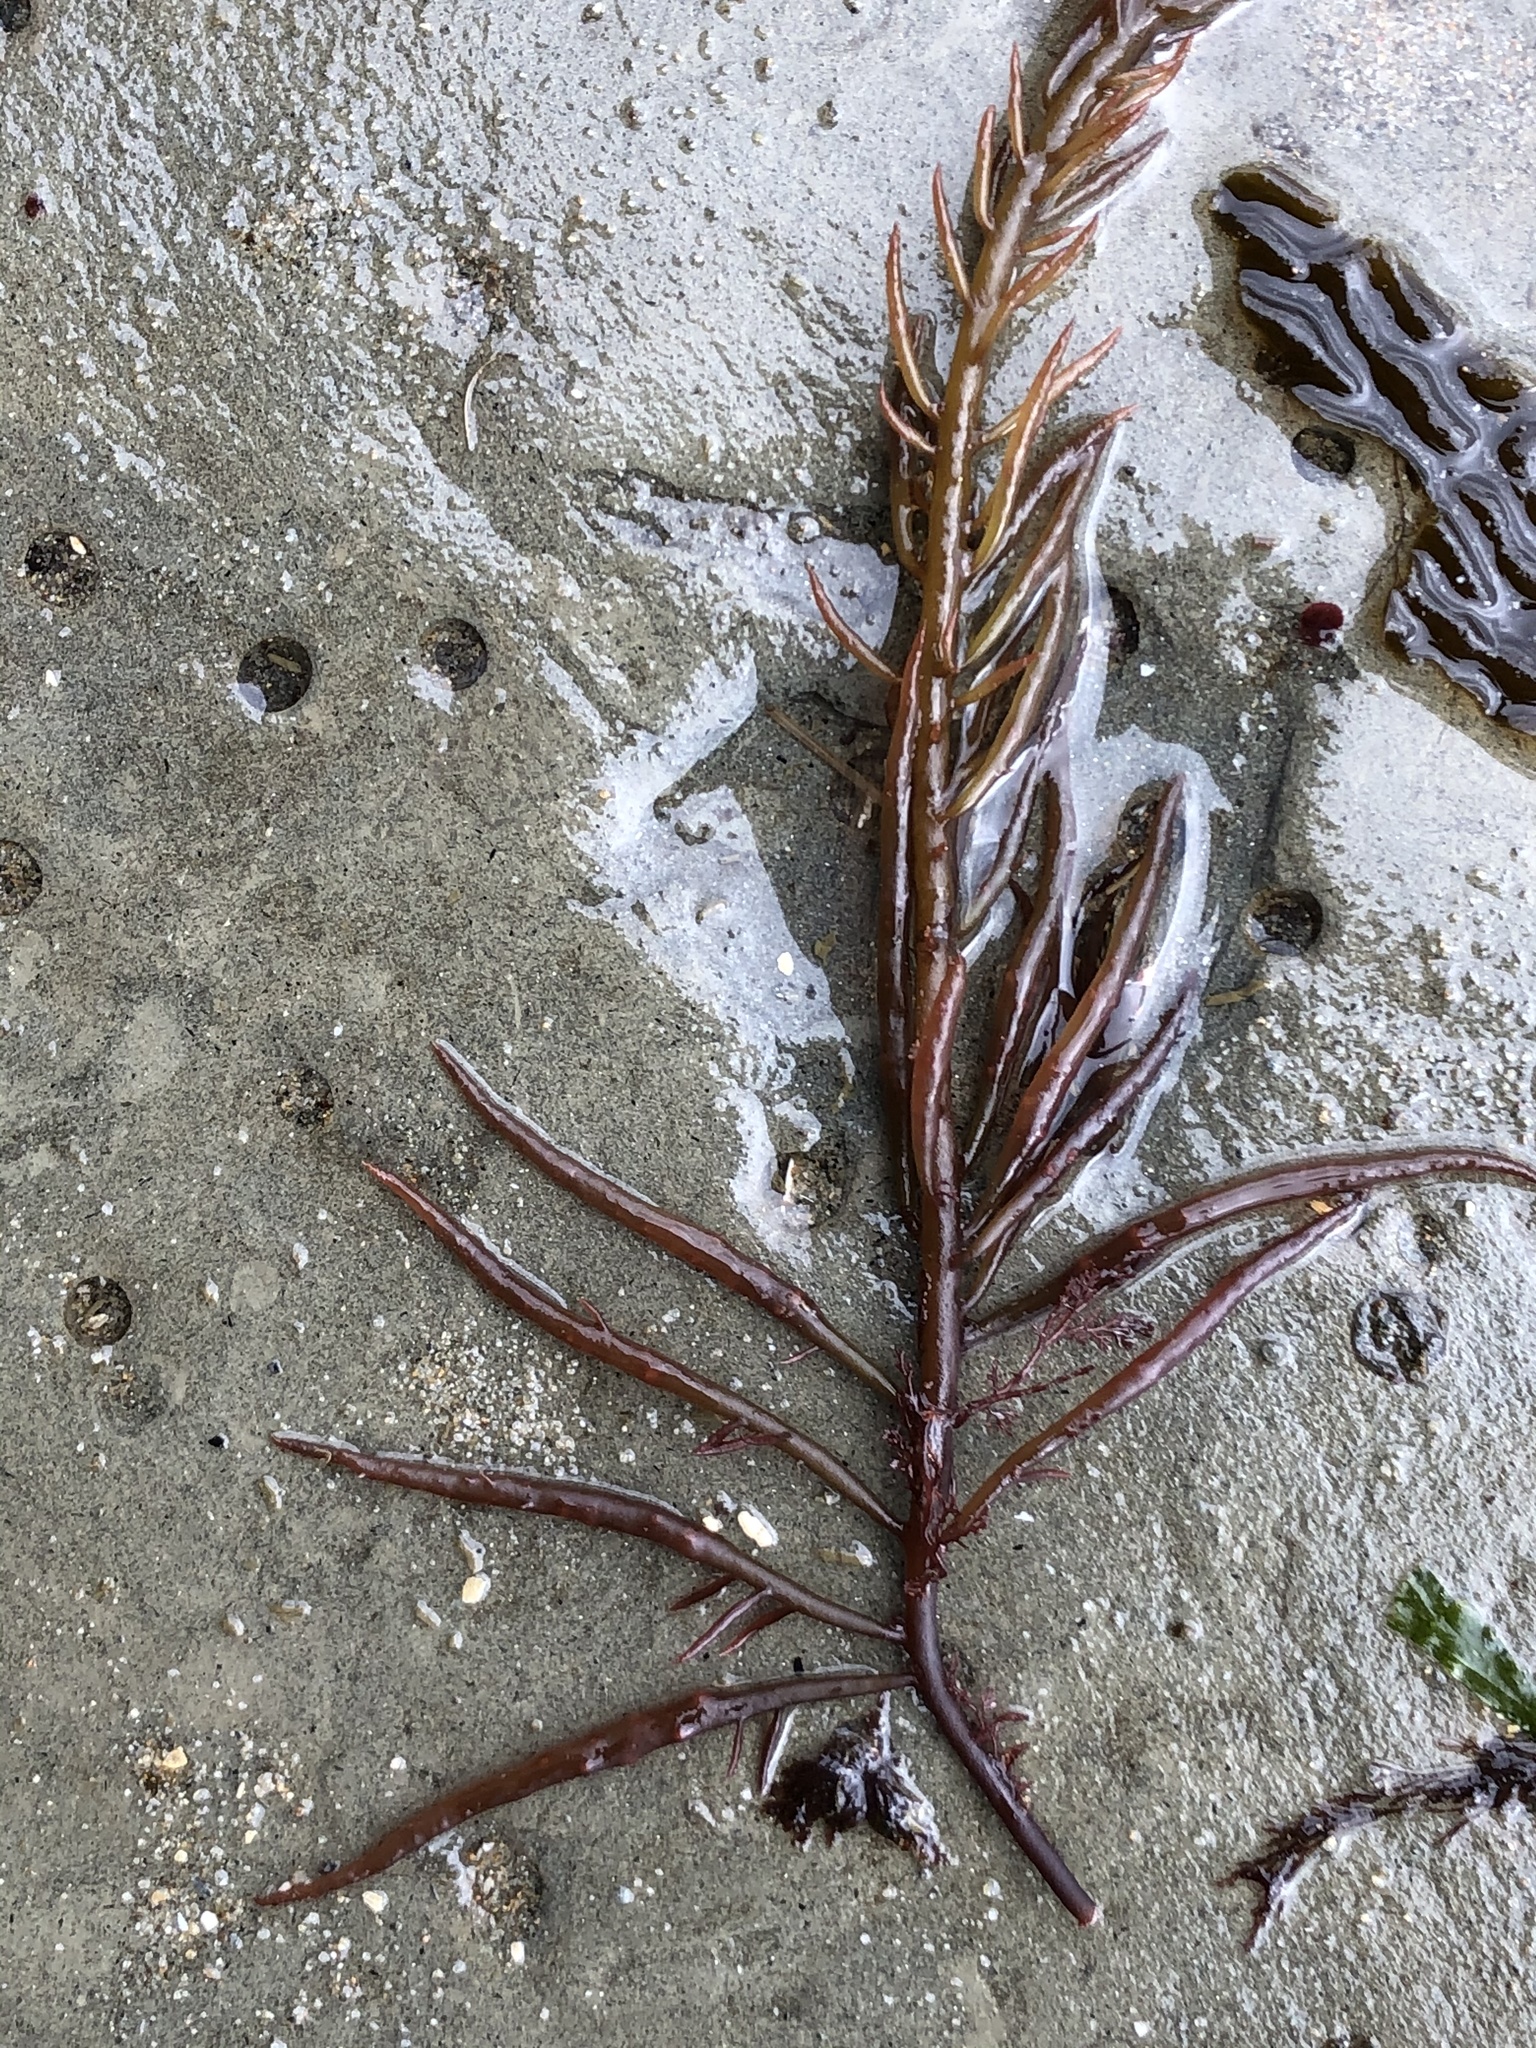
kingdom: Plantae
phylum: Rhodophyta
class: Florideophyceae
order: Gigartinales
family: Solieriaceae
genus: Sarcodiotheca
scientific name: Sarcodiotheca gaudichaudii
